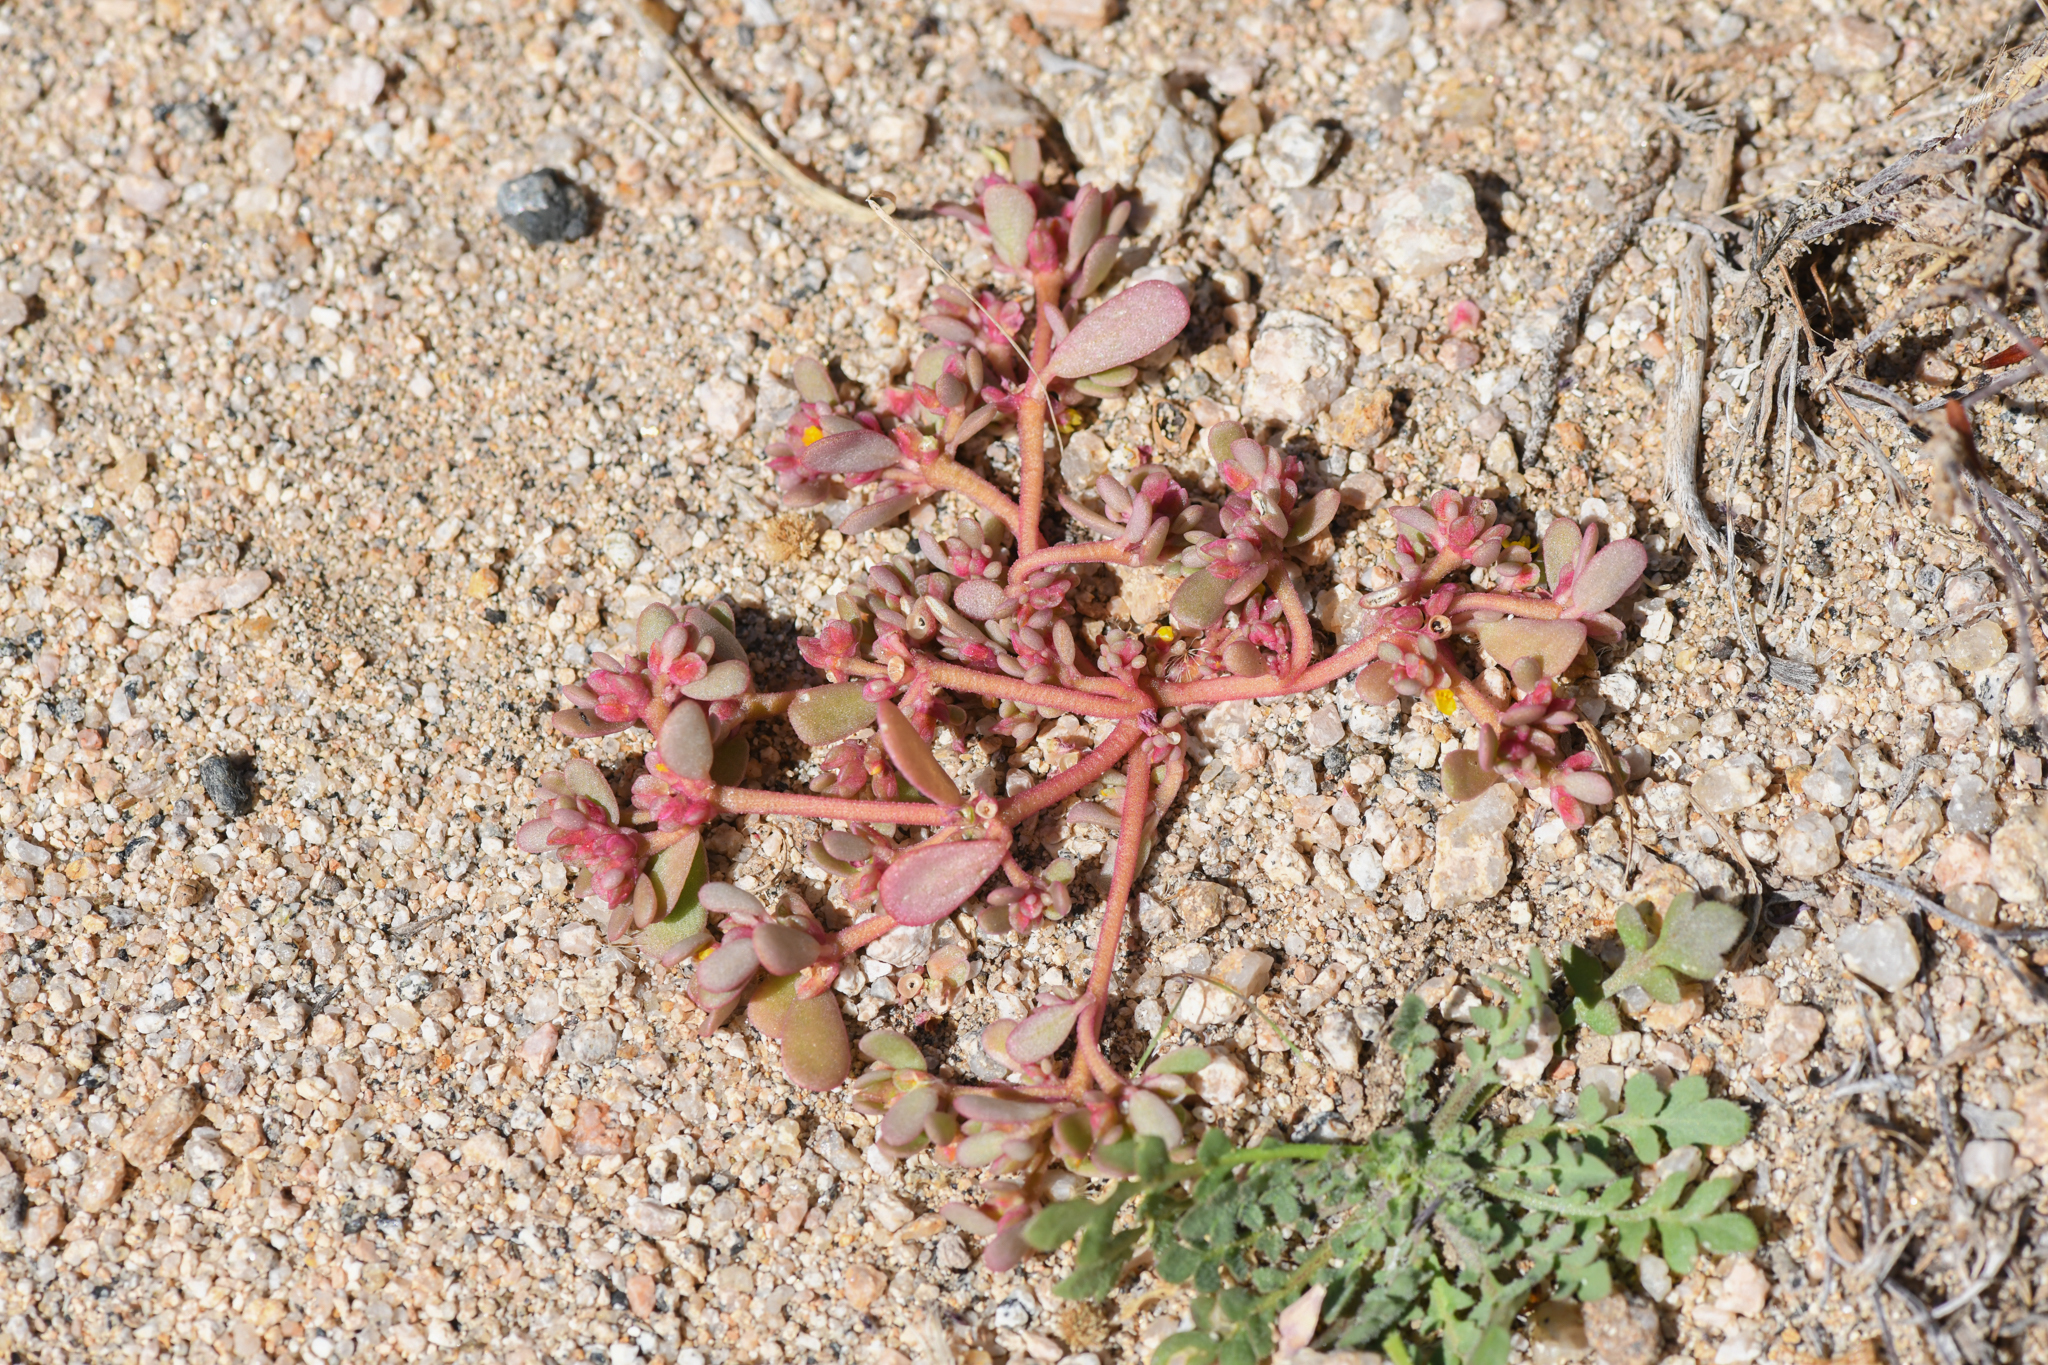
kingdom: Plantae
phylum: Tracheophyta
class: Magnoliopsida
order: Caryophyllales
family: Portulacaceae
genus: Portulaca
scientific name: Portulaca impolita
